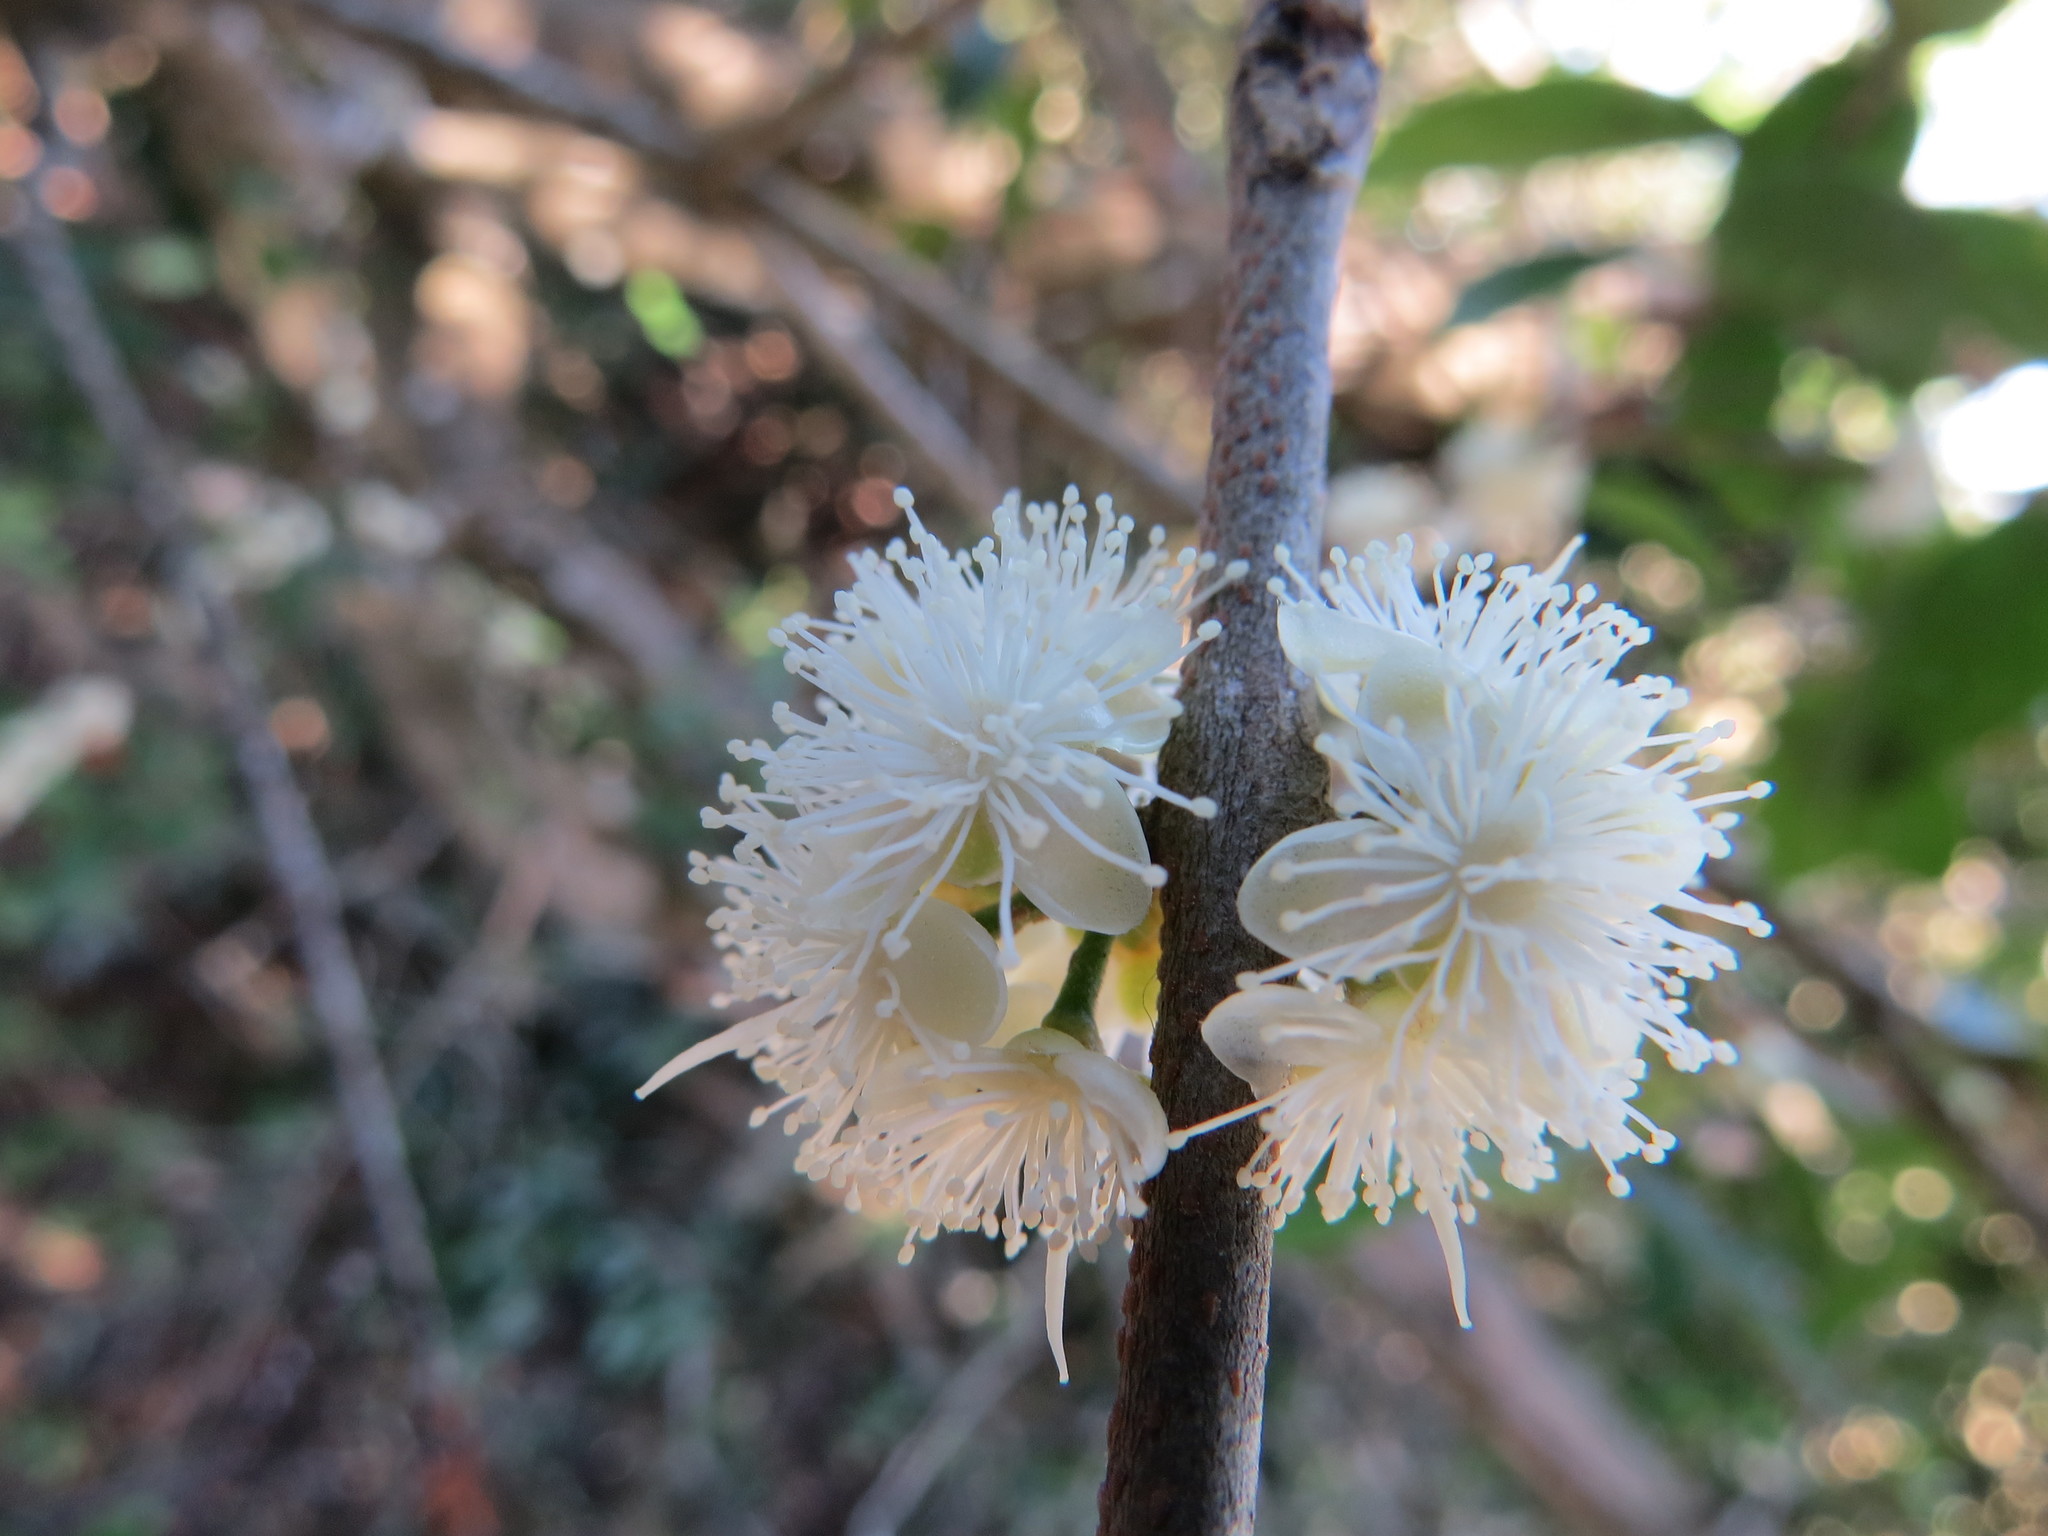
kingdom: Plantae
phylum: Tracheophyta
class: Magnoliopsida
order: Myrtales
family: Myrtaceae
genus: Eugenia
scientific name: Eugenia uruguayensis
